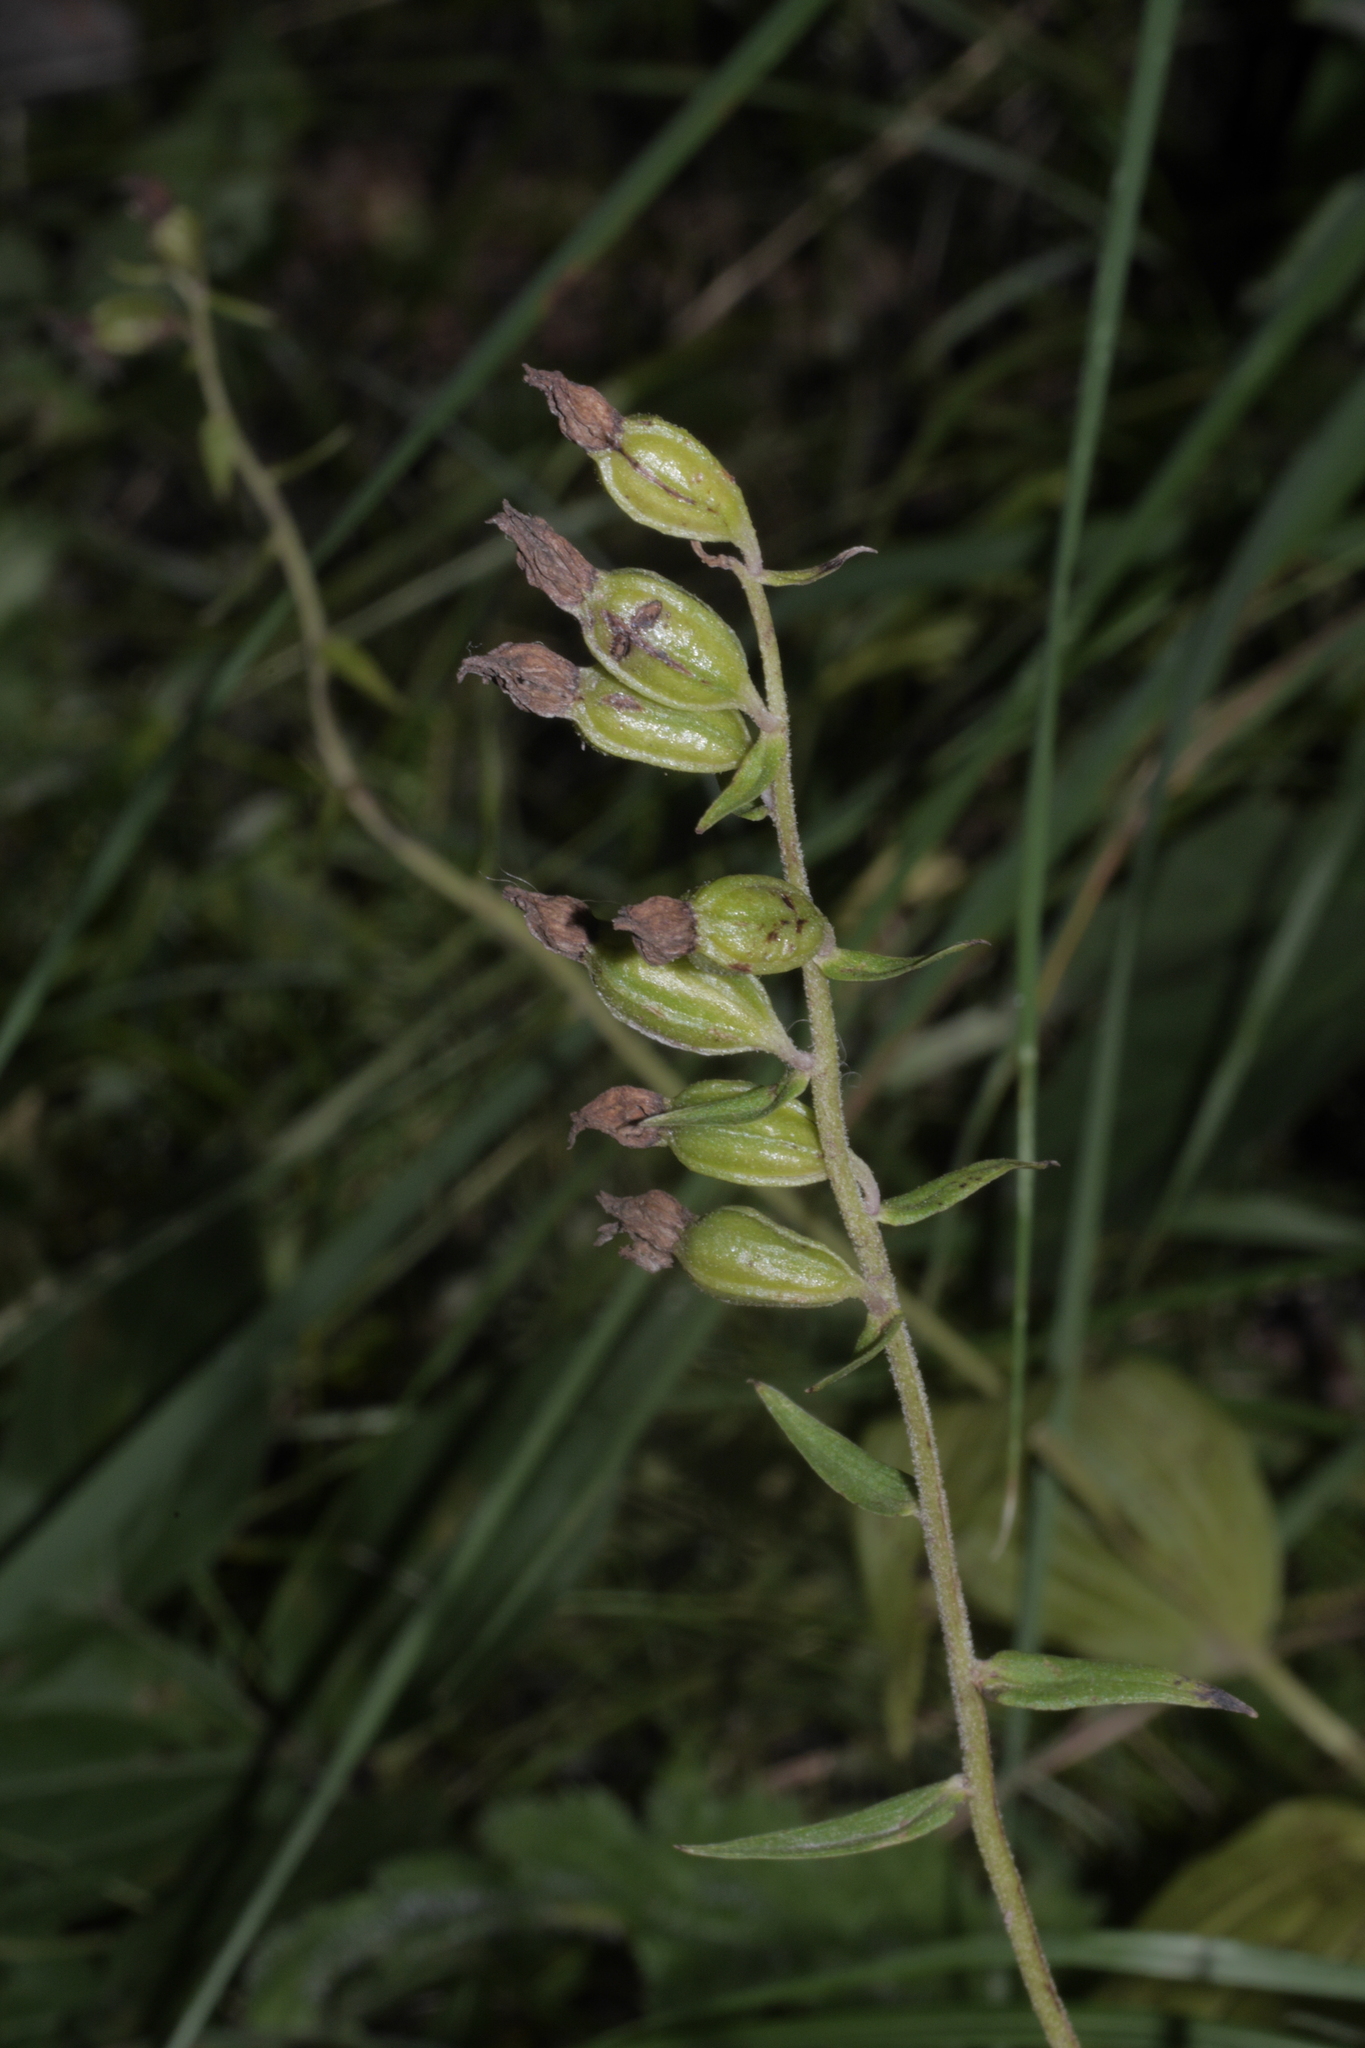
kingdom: Plantae
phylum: Tracheophyta
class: Liliopsida
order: Asparagales
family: Orchidaceae
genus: Epipactis
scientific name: Epipactis atrorubens
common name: Dark-red helleborine
